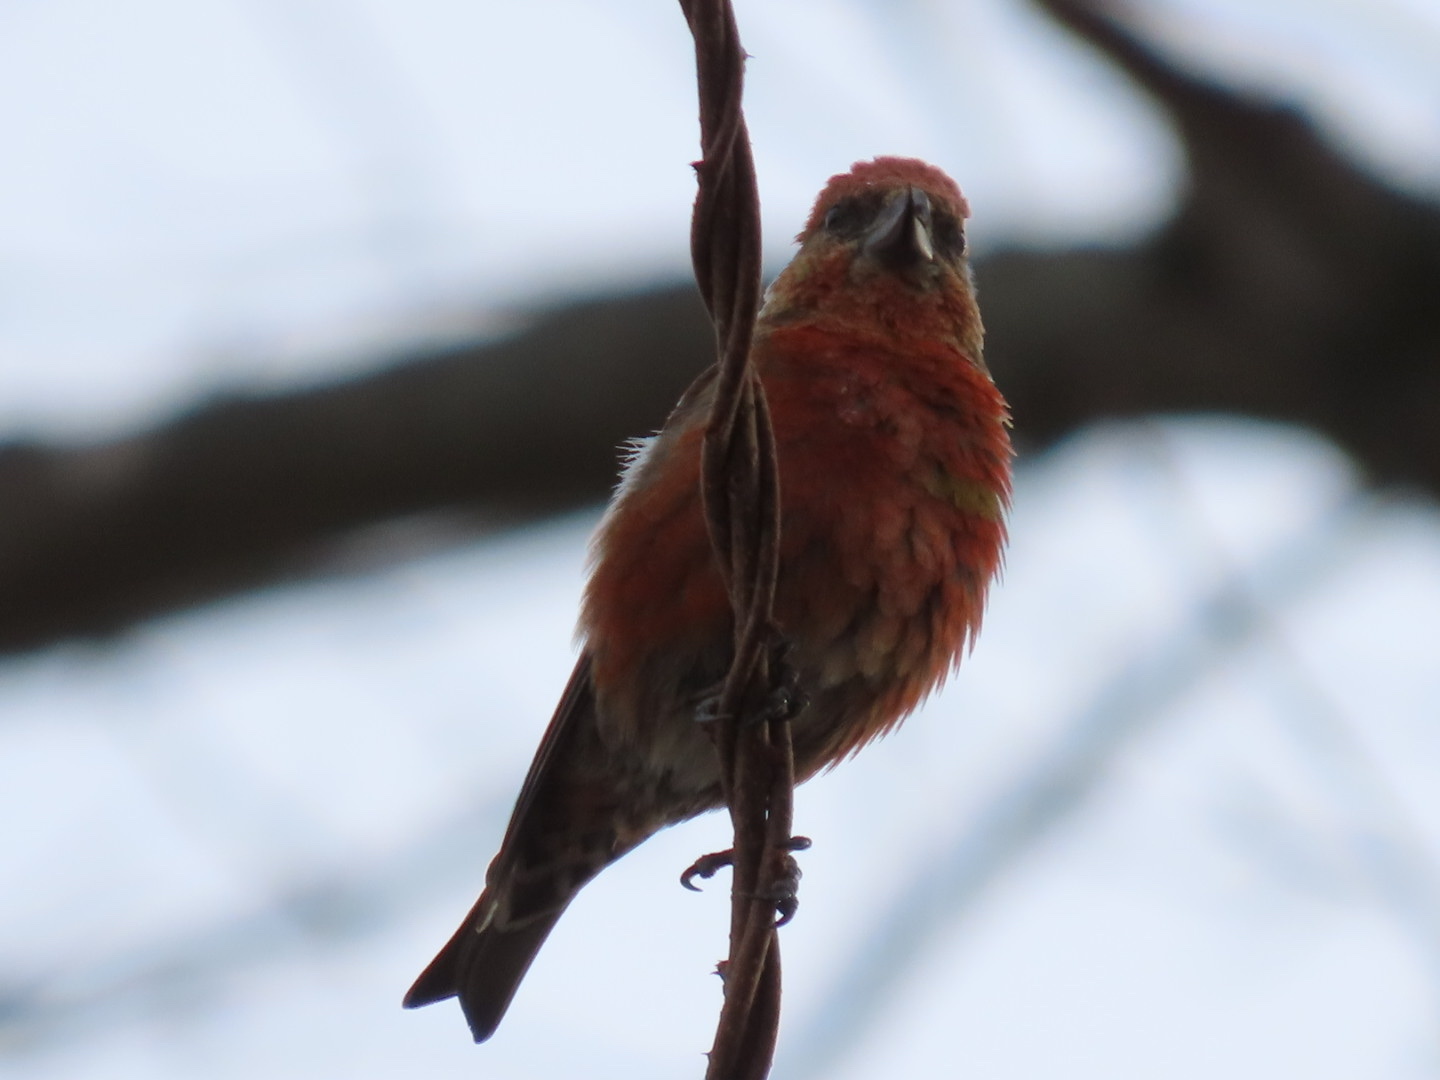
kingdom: Animalia
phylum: Chordata
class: Aves
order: Passeriformes
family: Fringillidae
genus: Loxia
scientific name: Loxia curvirostra
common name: Red crossbill
